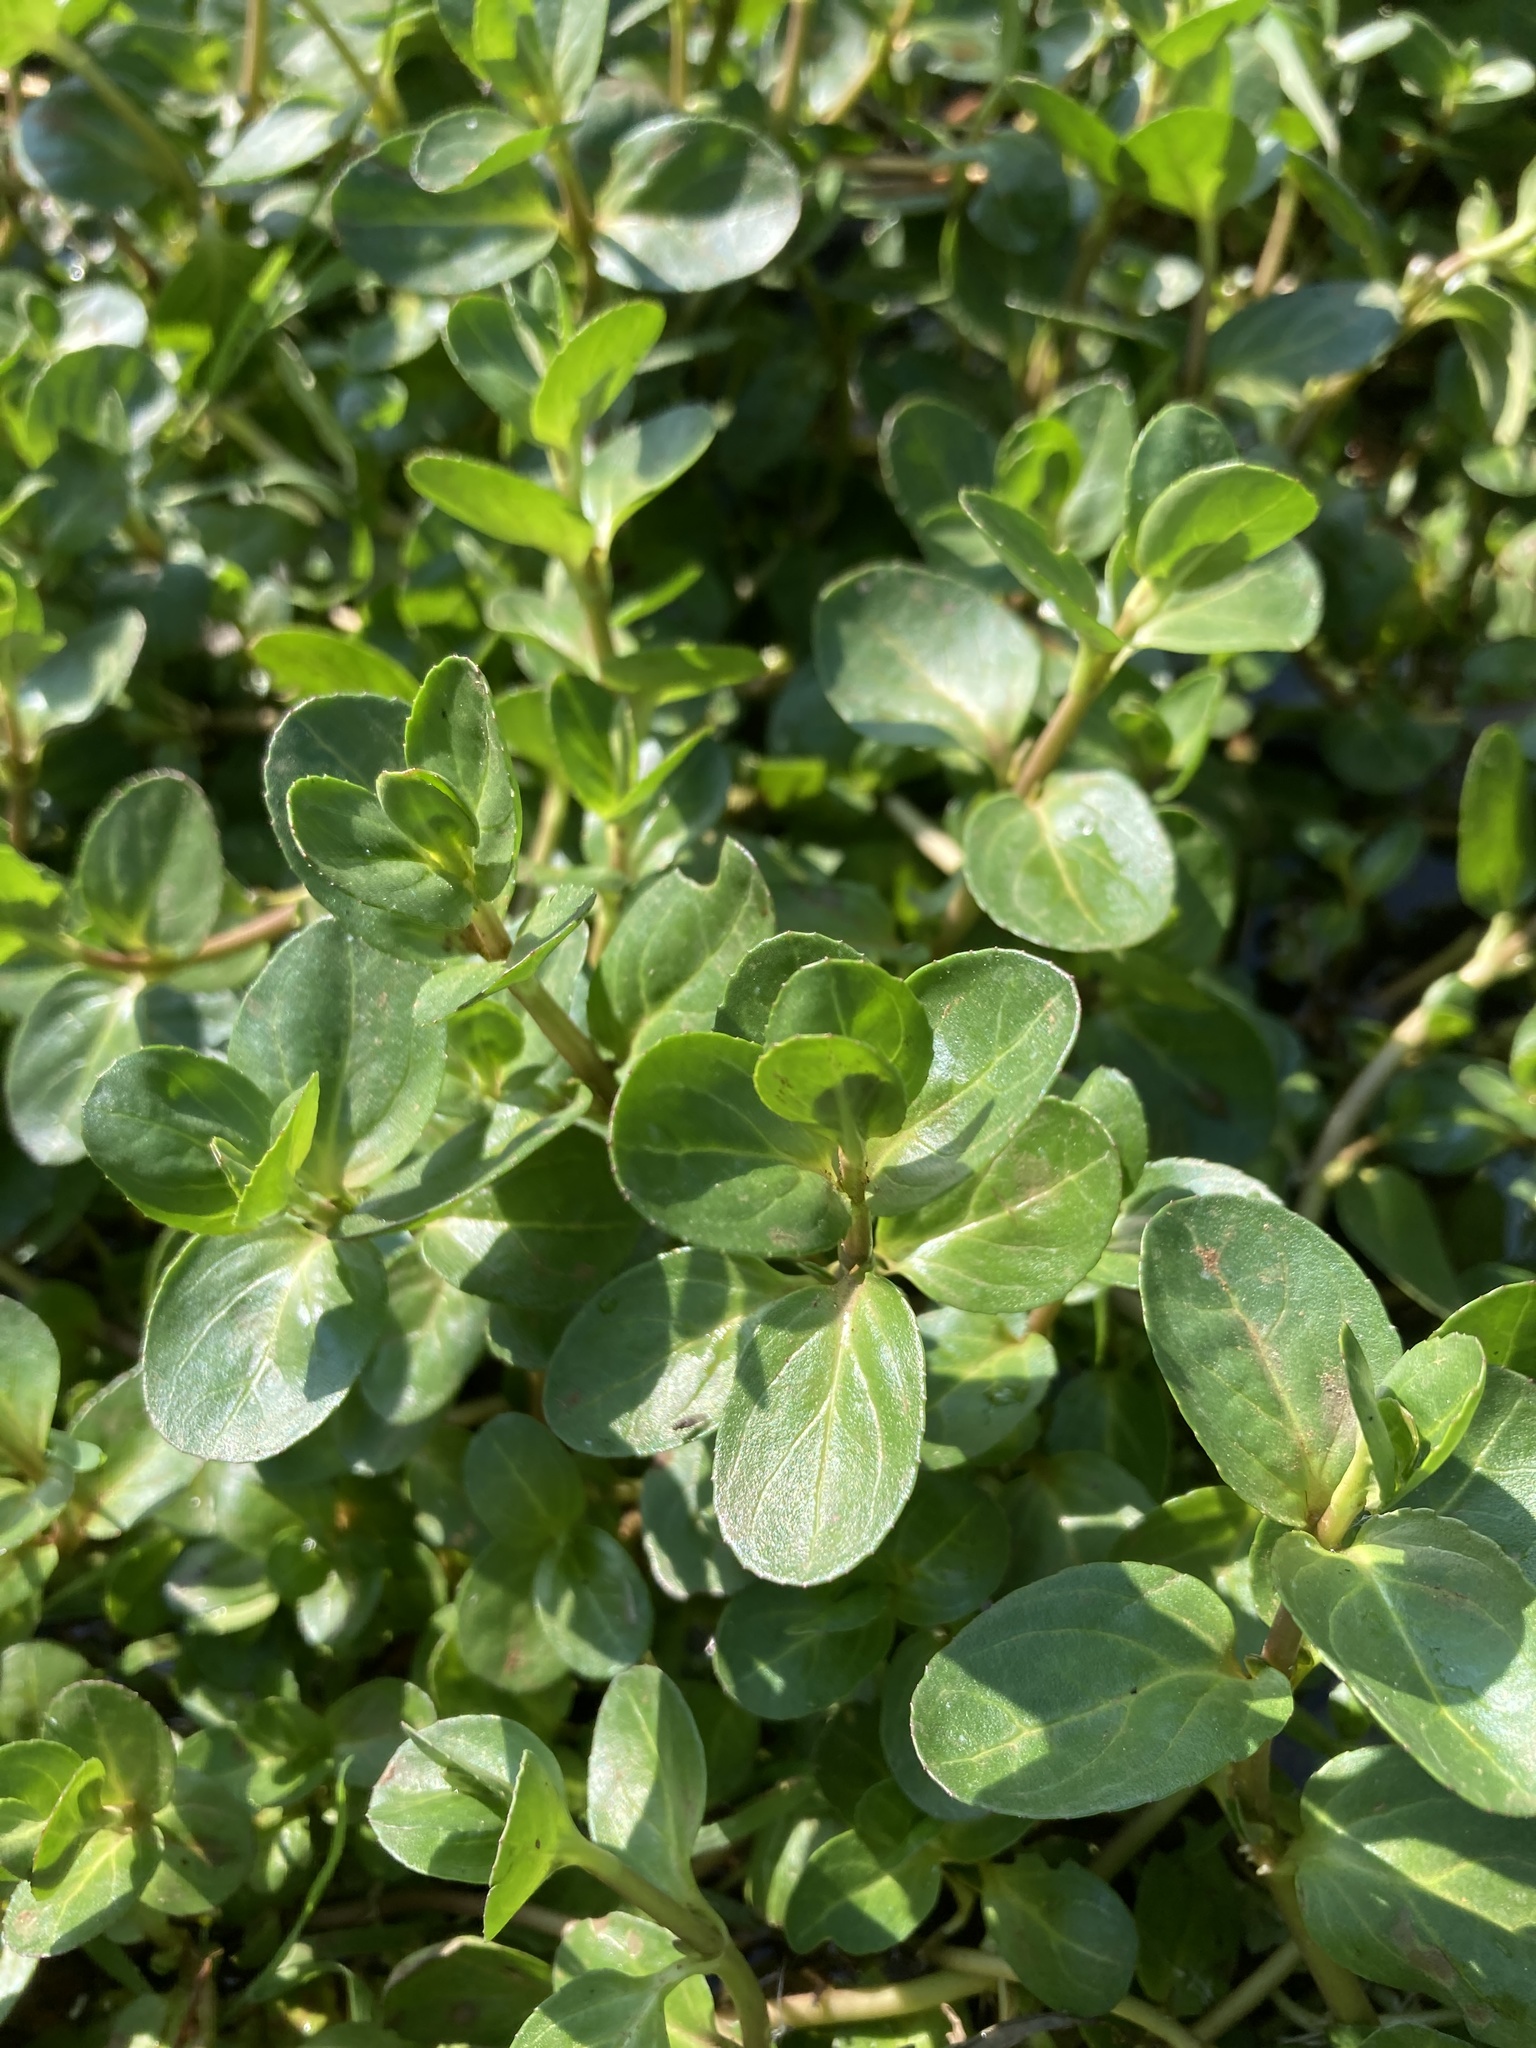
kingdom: Plantae
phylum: Tracheophyta
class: Magnoliopsida
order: Lamiales
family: Plantaginaceae
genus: Veronica
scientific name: Veronica beccabunga
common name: Brooklime
